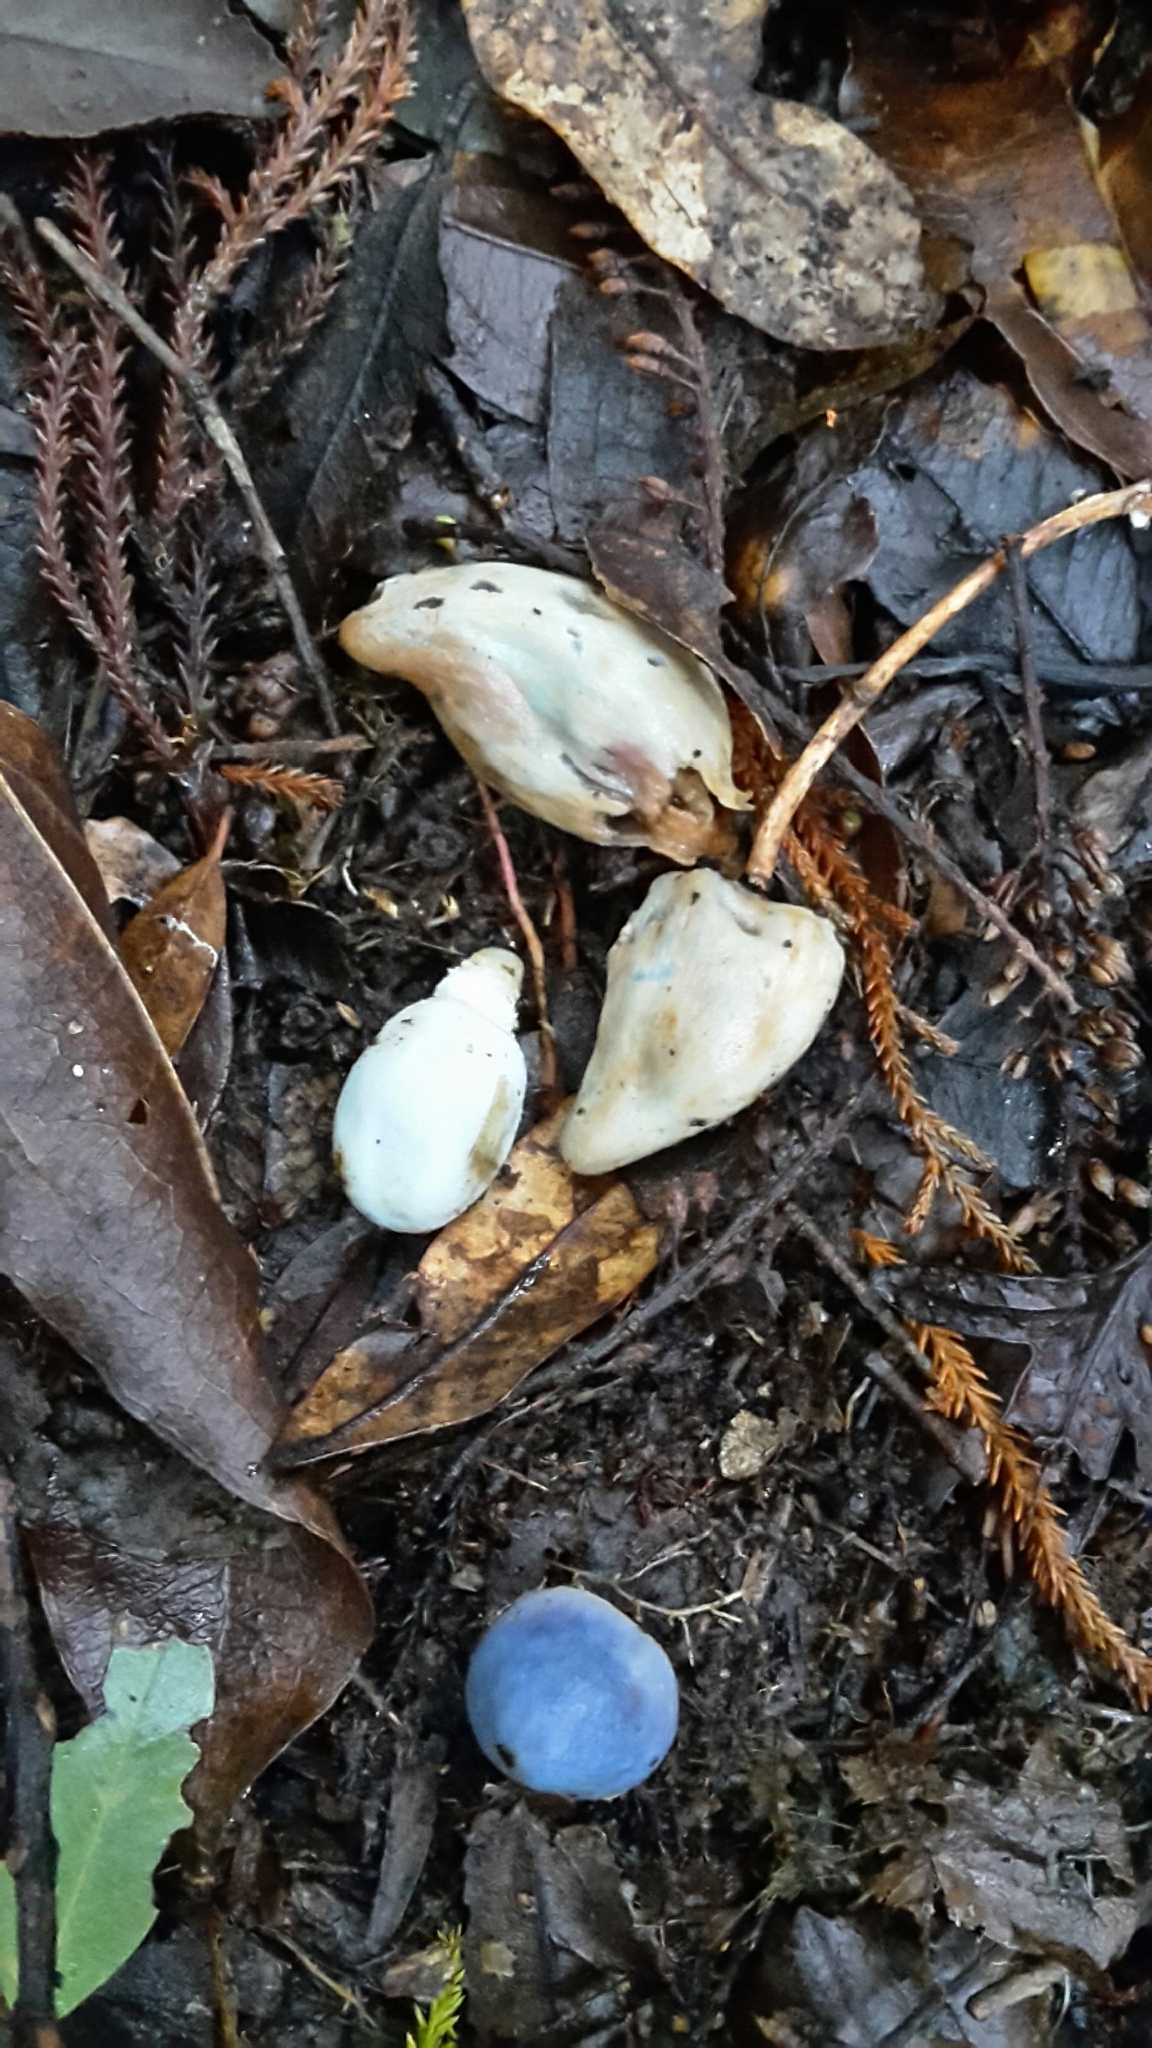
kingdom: Fungi
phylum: Basidiomycota
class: Agaricomycetes
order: Agaricales
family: Agaricaceae
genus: Clavogaster
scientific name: Clavogaster virescens
